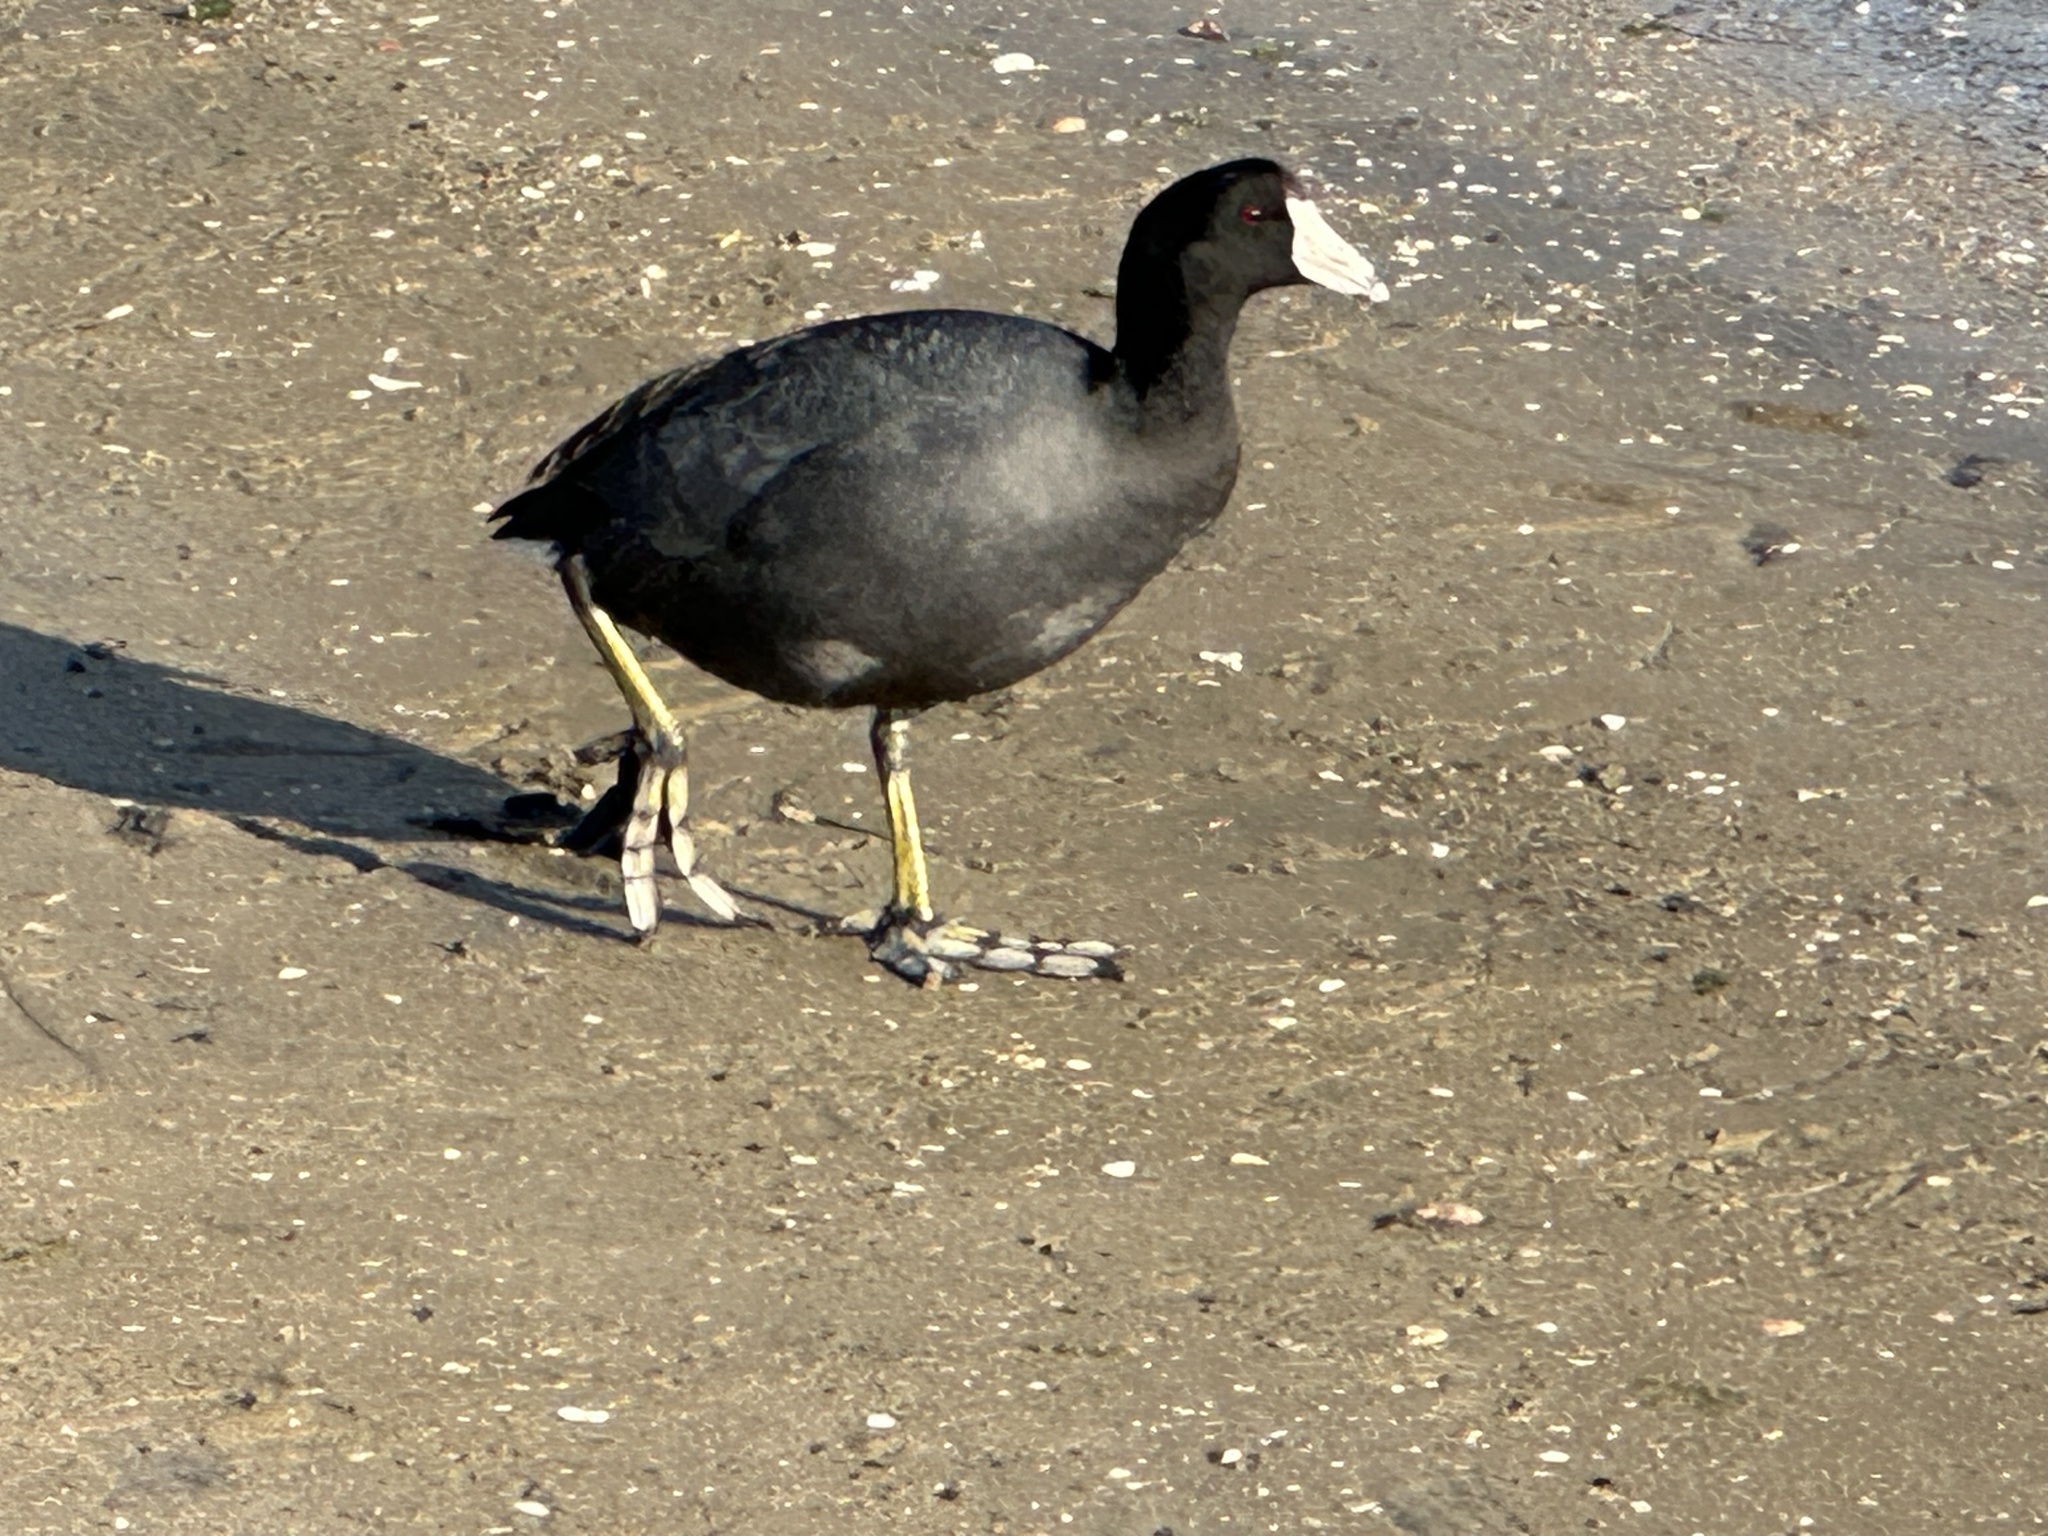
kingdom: Animalia
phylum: Chordata
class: Aves
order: Gruiformes
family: Rallidae
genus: Fulica
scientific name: Fulica americana
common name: American coot
